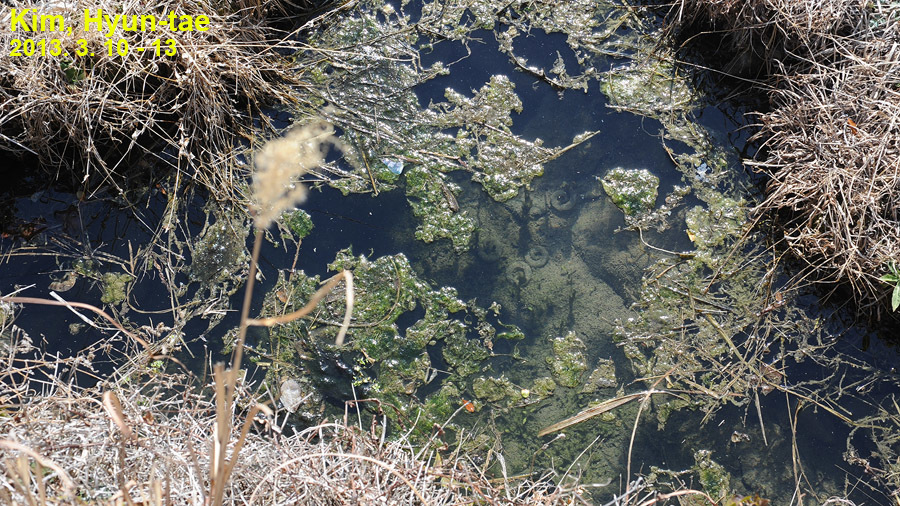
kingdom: Animalia
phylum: Chordata
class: Amphibia
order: Caudata
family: Hynobiidae
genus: Hynobius
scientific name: Hynobius unisacculus
